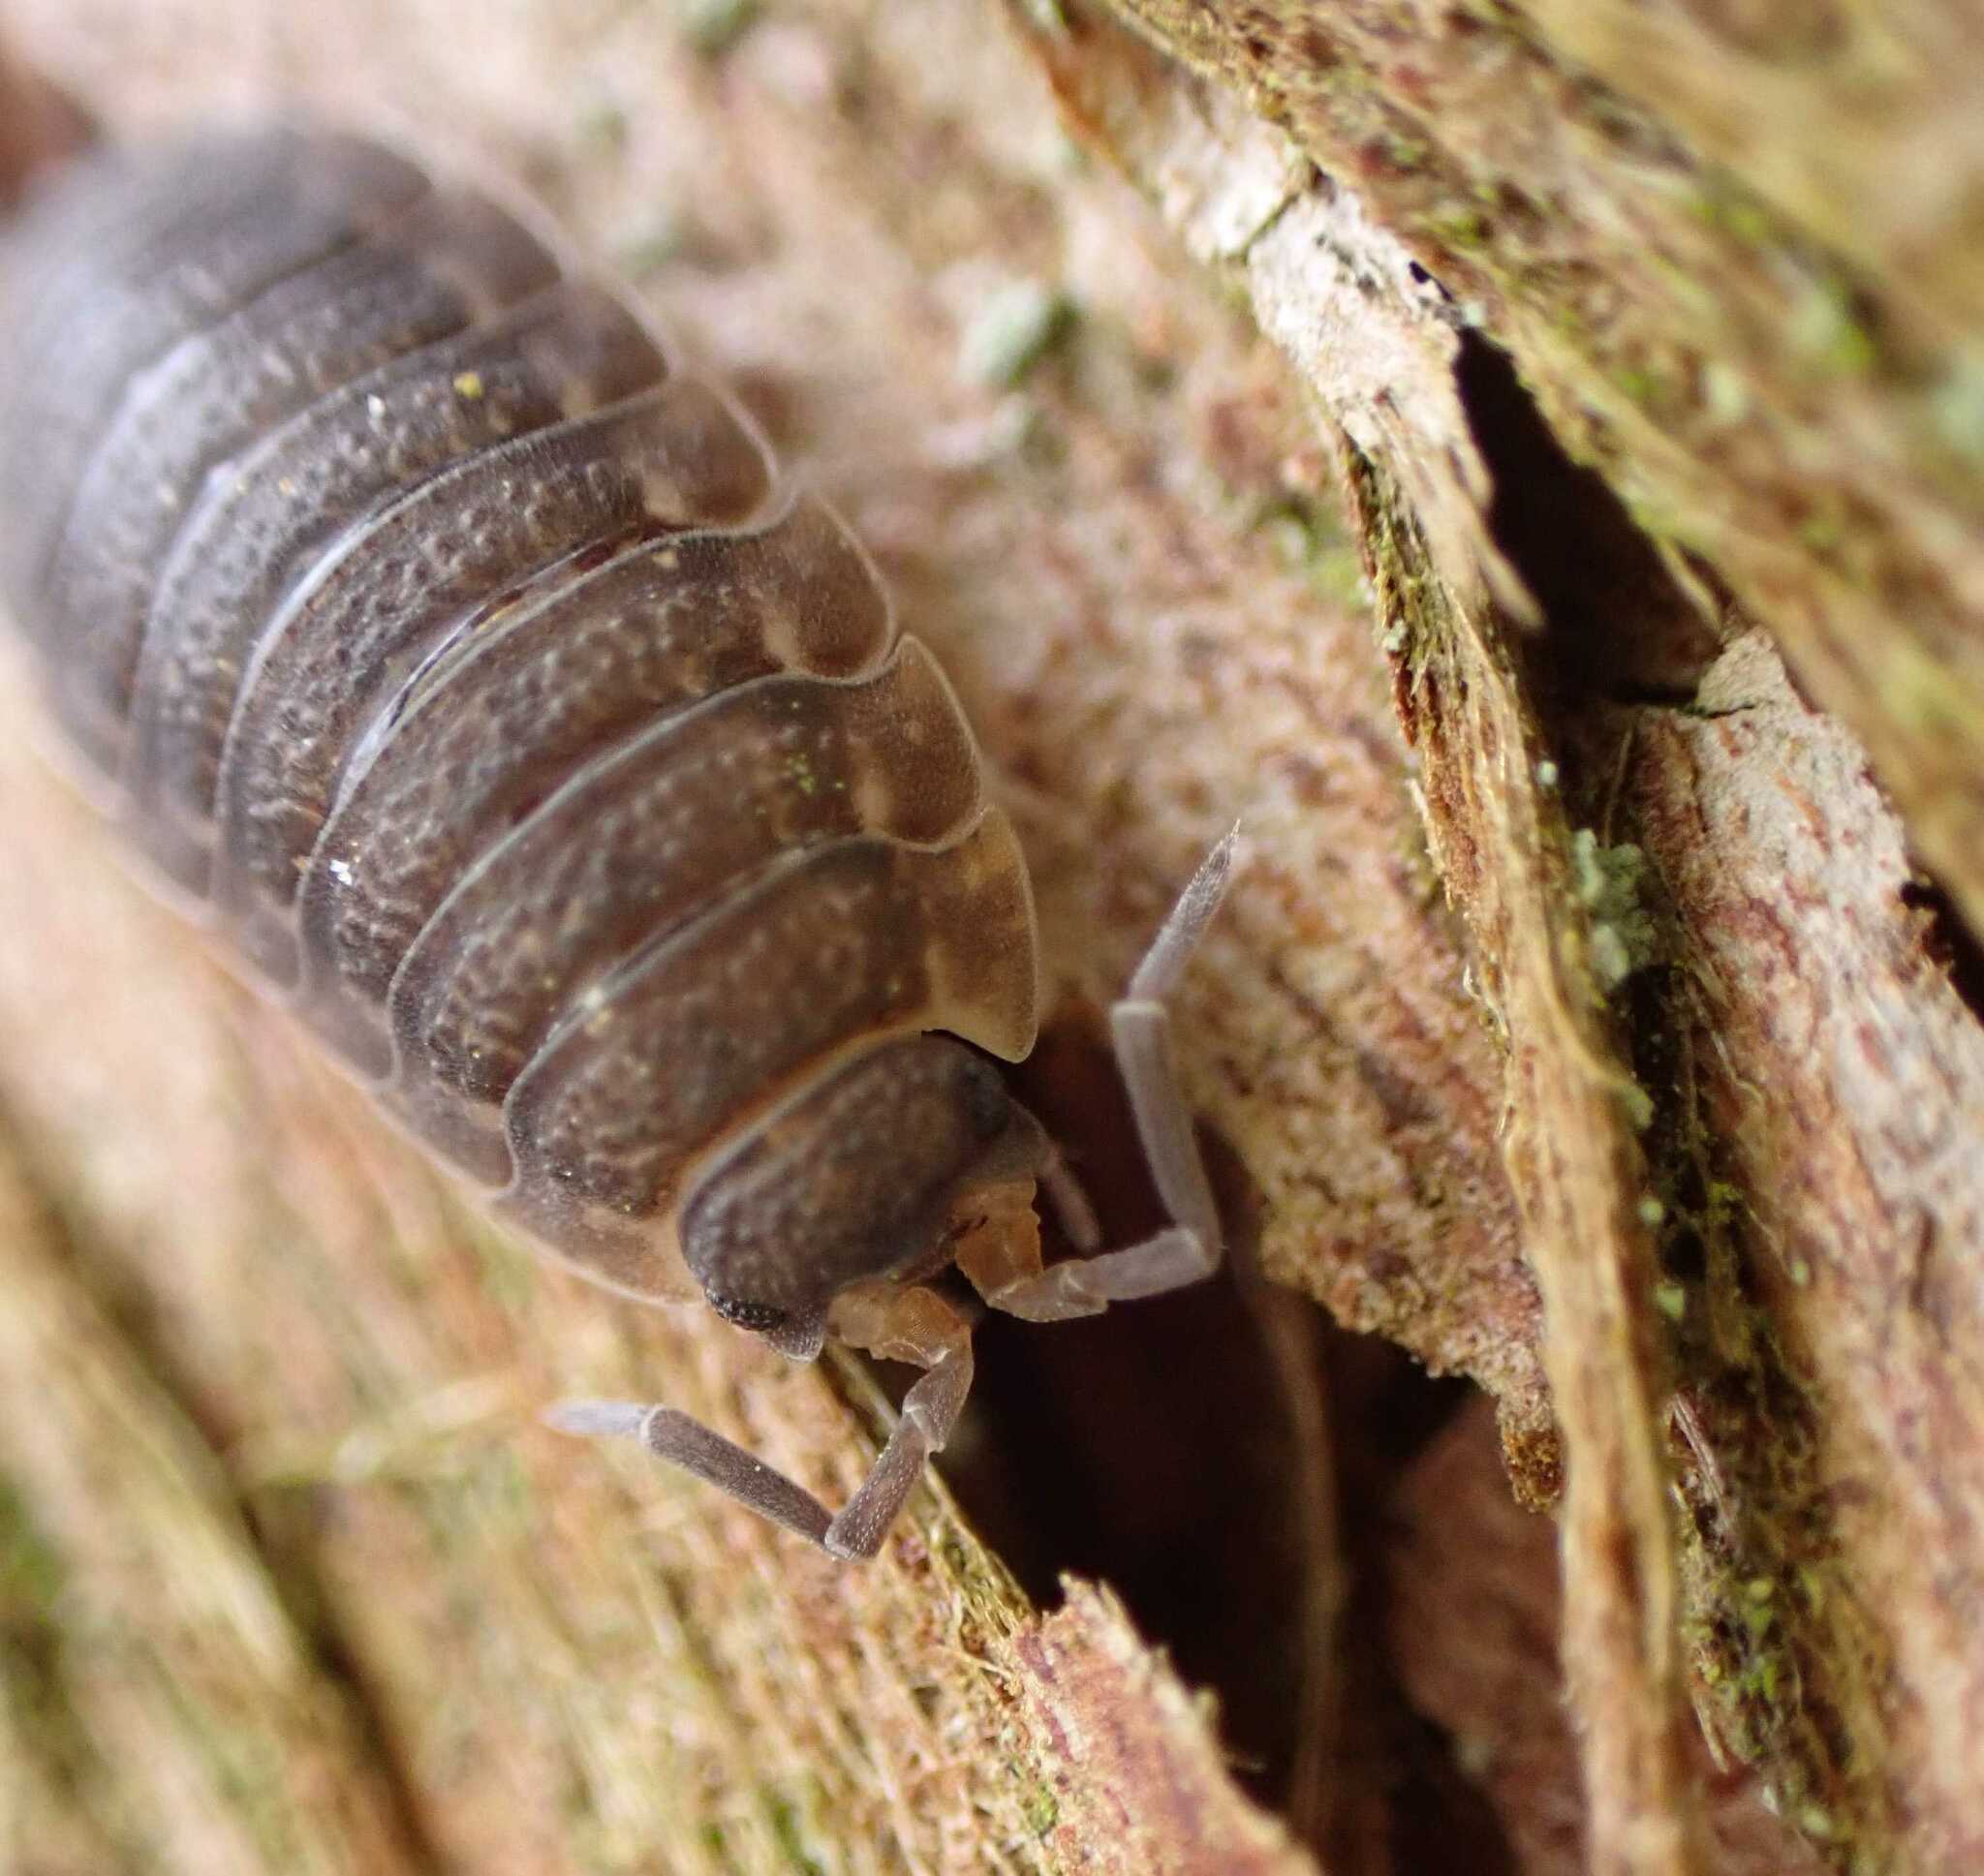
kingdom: Animalia
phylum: Arthropoda
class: Malacostraca
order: Isopoda
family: Porcellionidae
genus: Porcellio
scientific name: Porcellio scaber
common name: Common rough woodlouse
